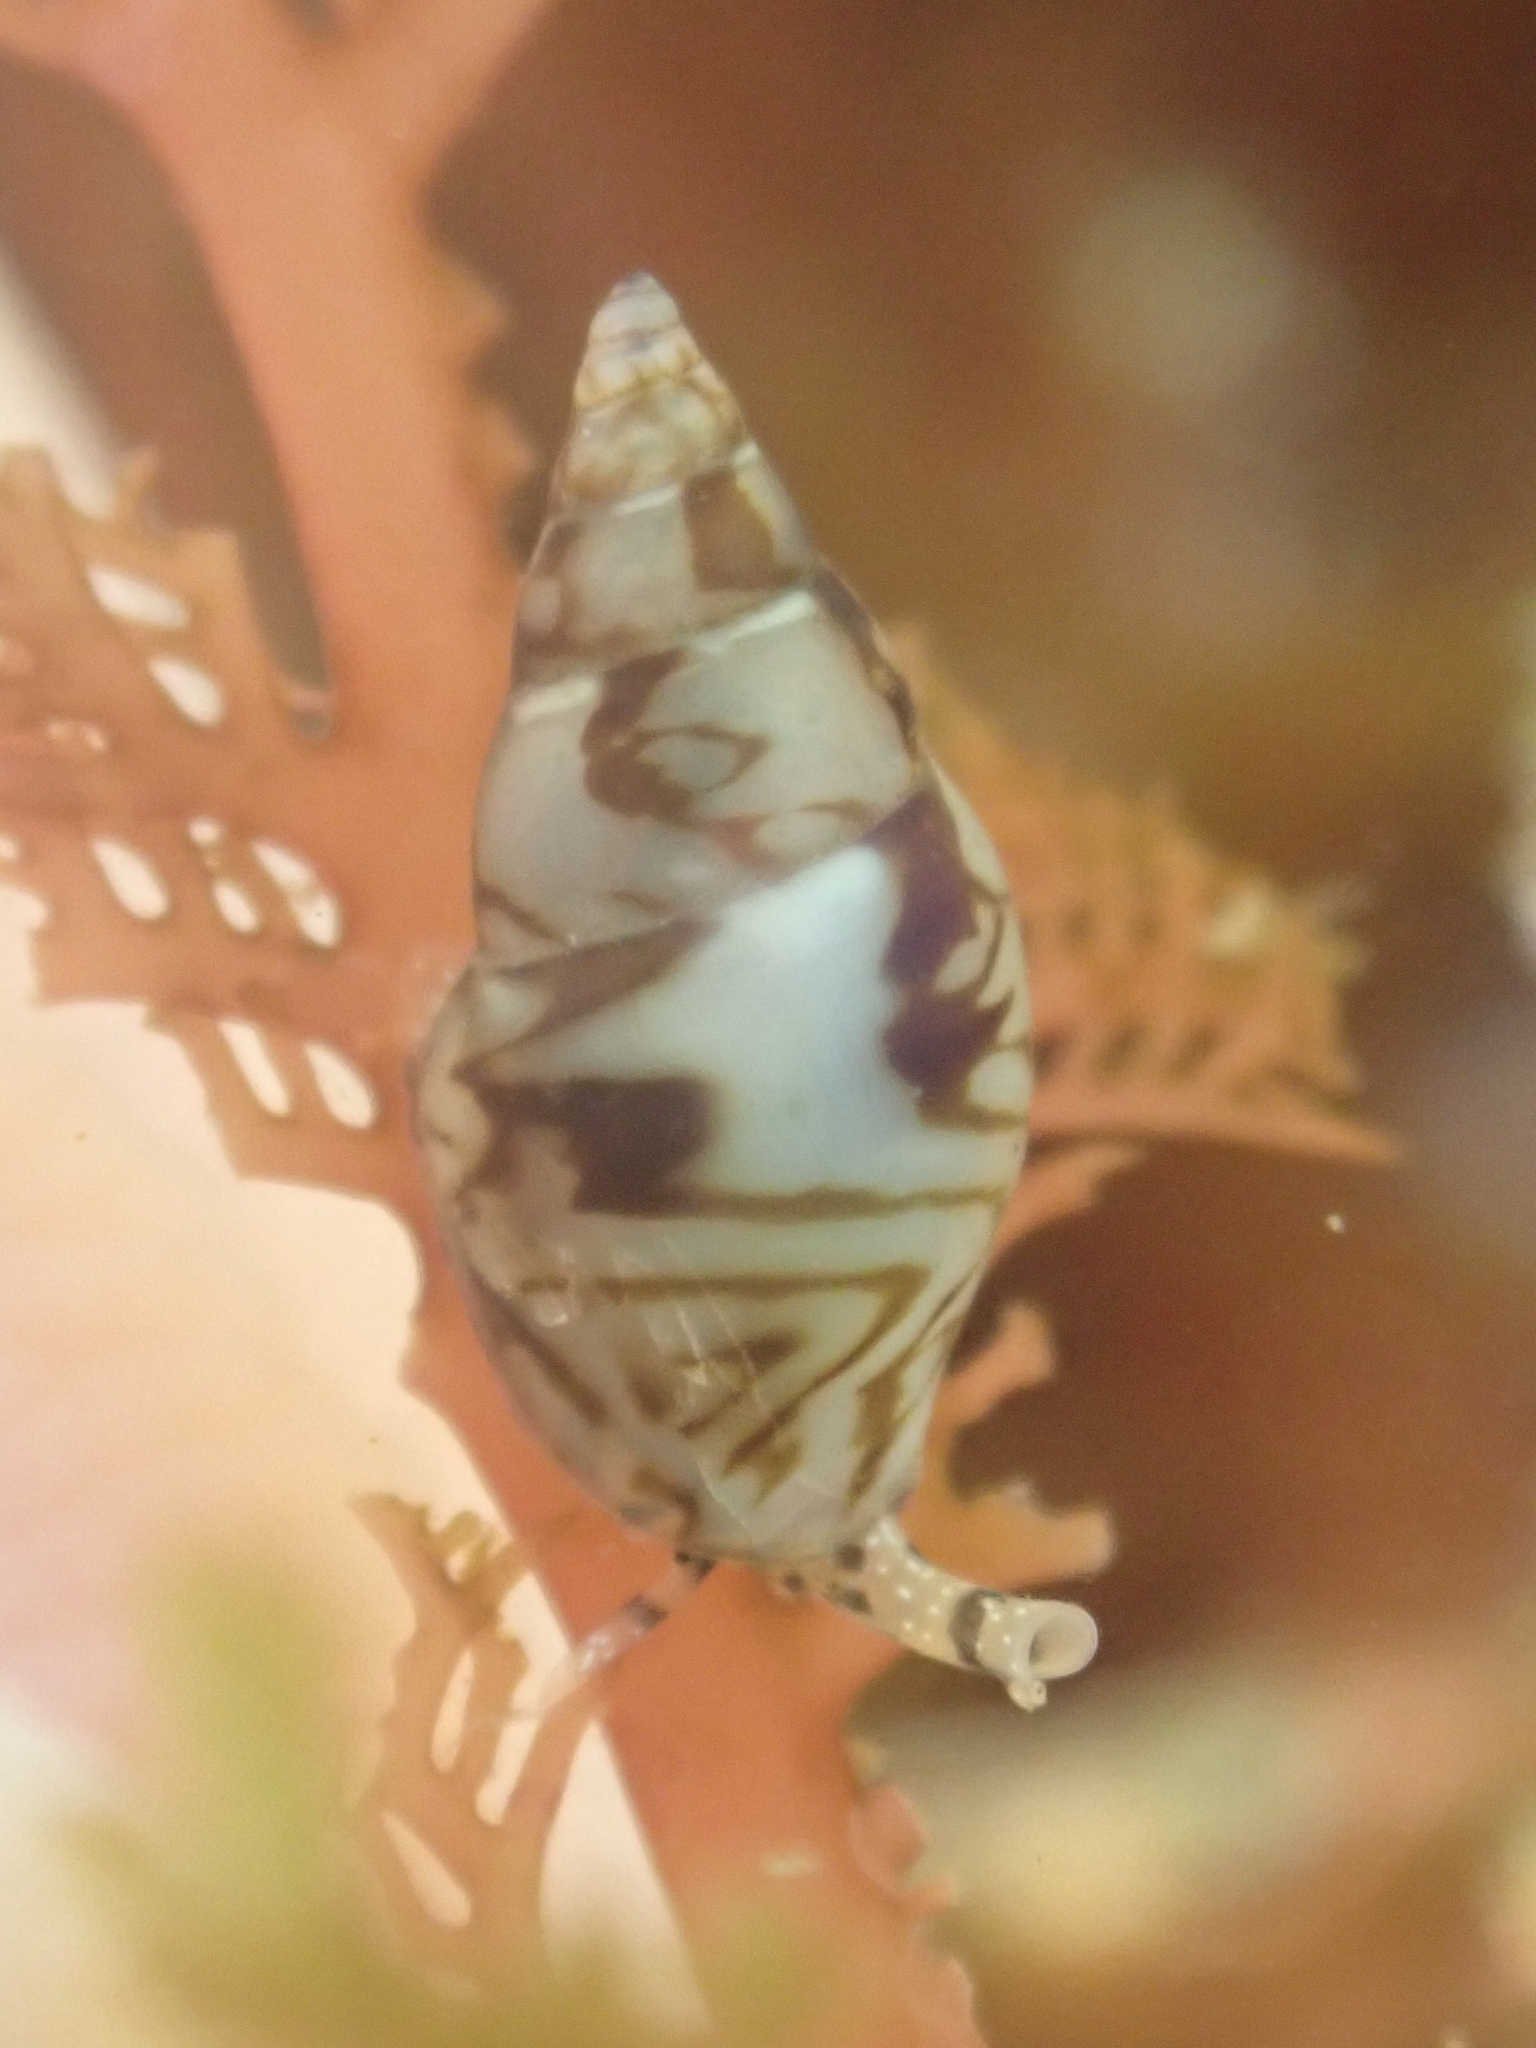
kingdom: Animalia
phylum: Mollusca
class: Gastropoda
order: Neogastropoda
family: Columbellidae
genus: Alia
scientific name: Alia carinata
